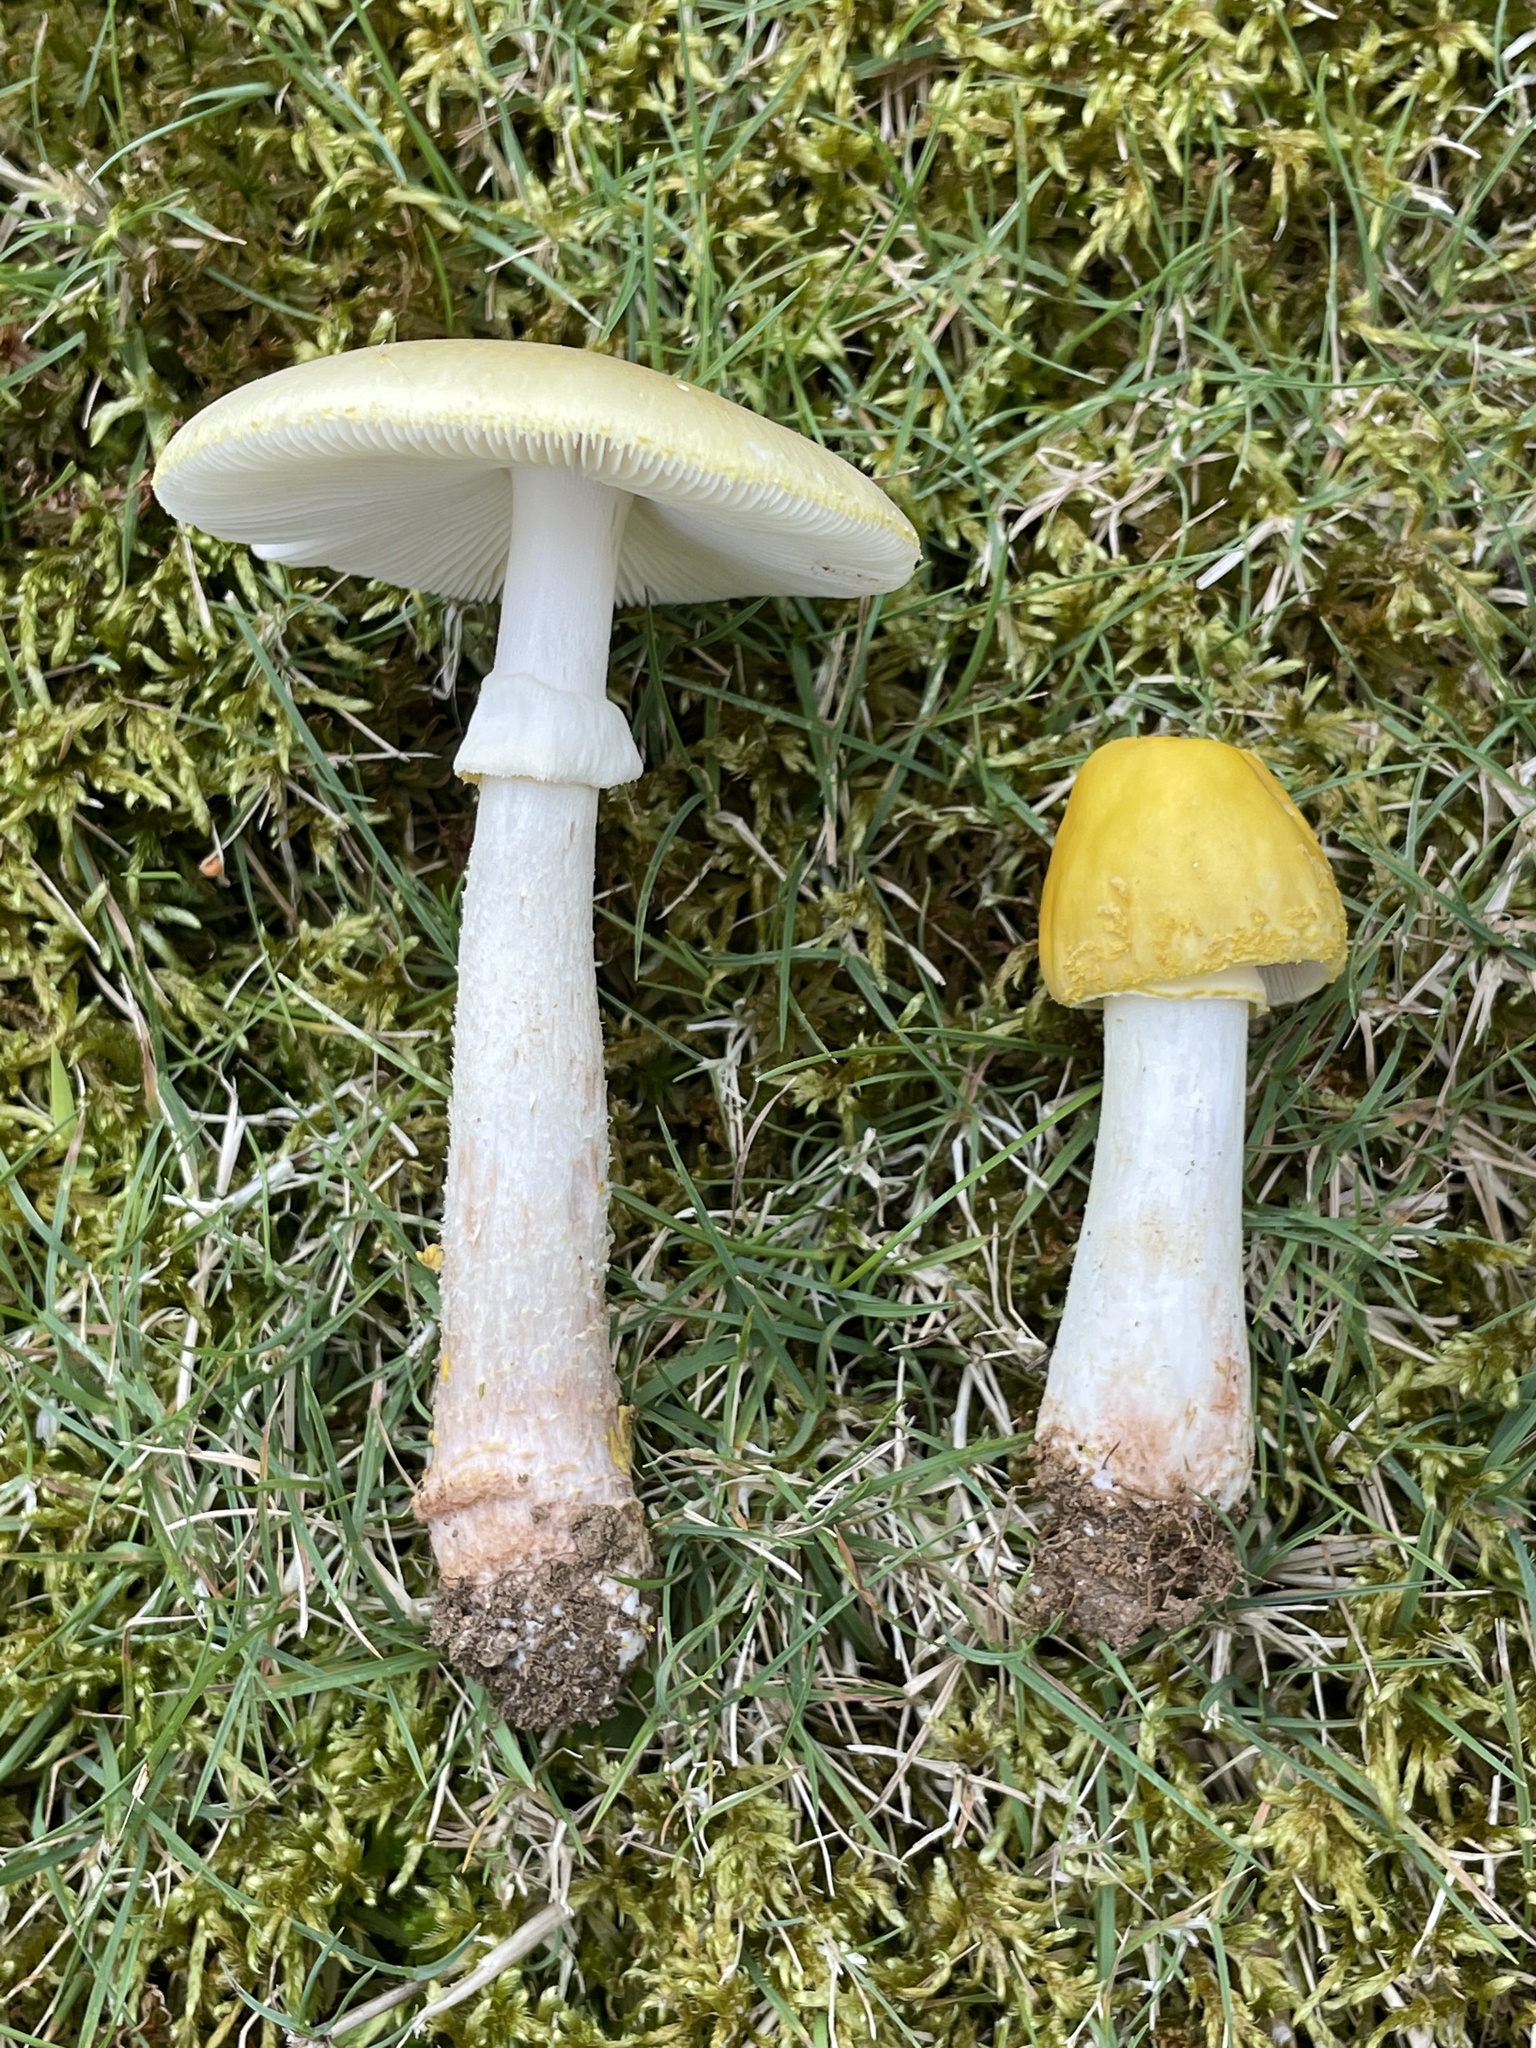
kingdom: Fungi
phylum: Basidiomycota
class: Agaricomycetes
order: Agaricales
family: Amanitaceae
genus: Amanita
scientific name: Amanita flavorubens
